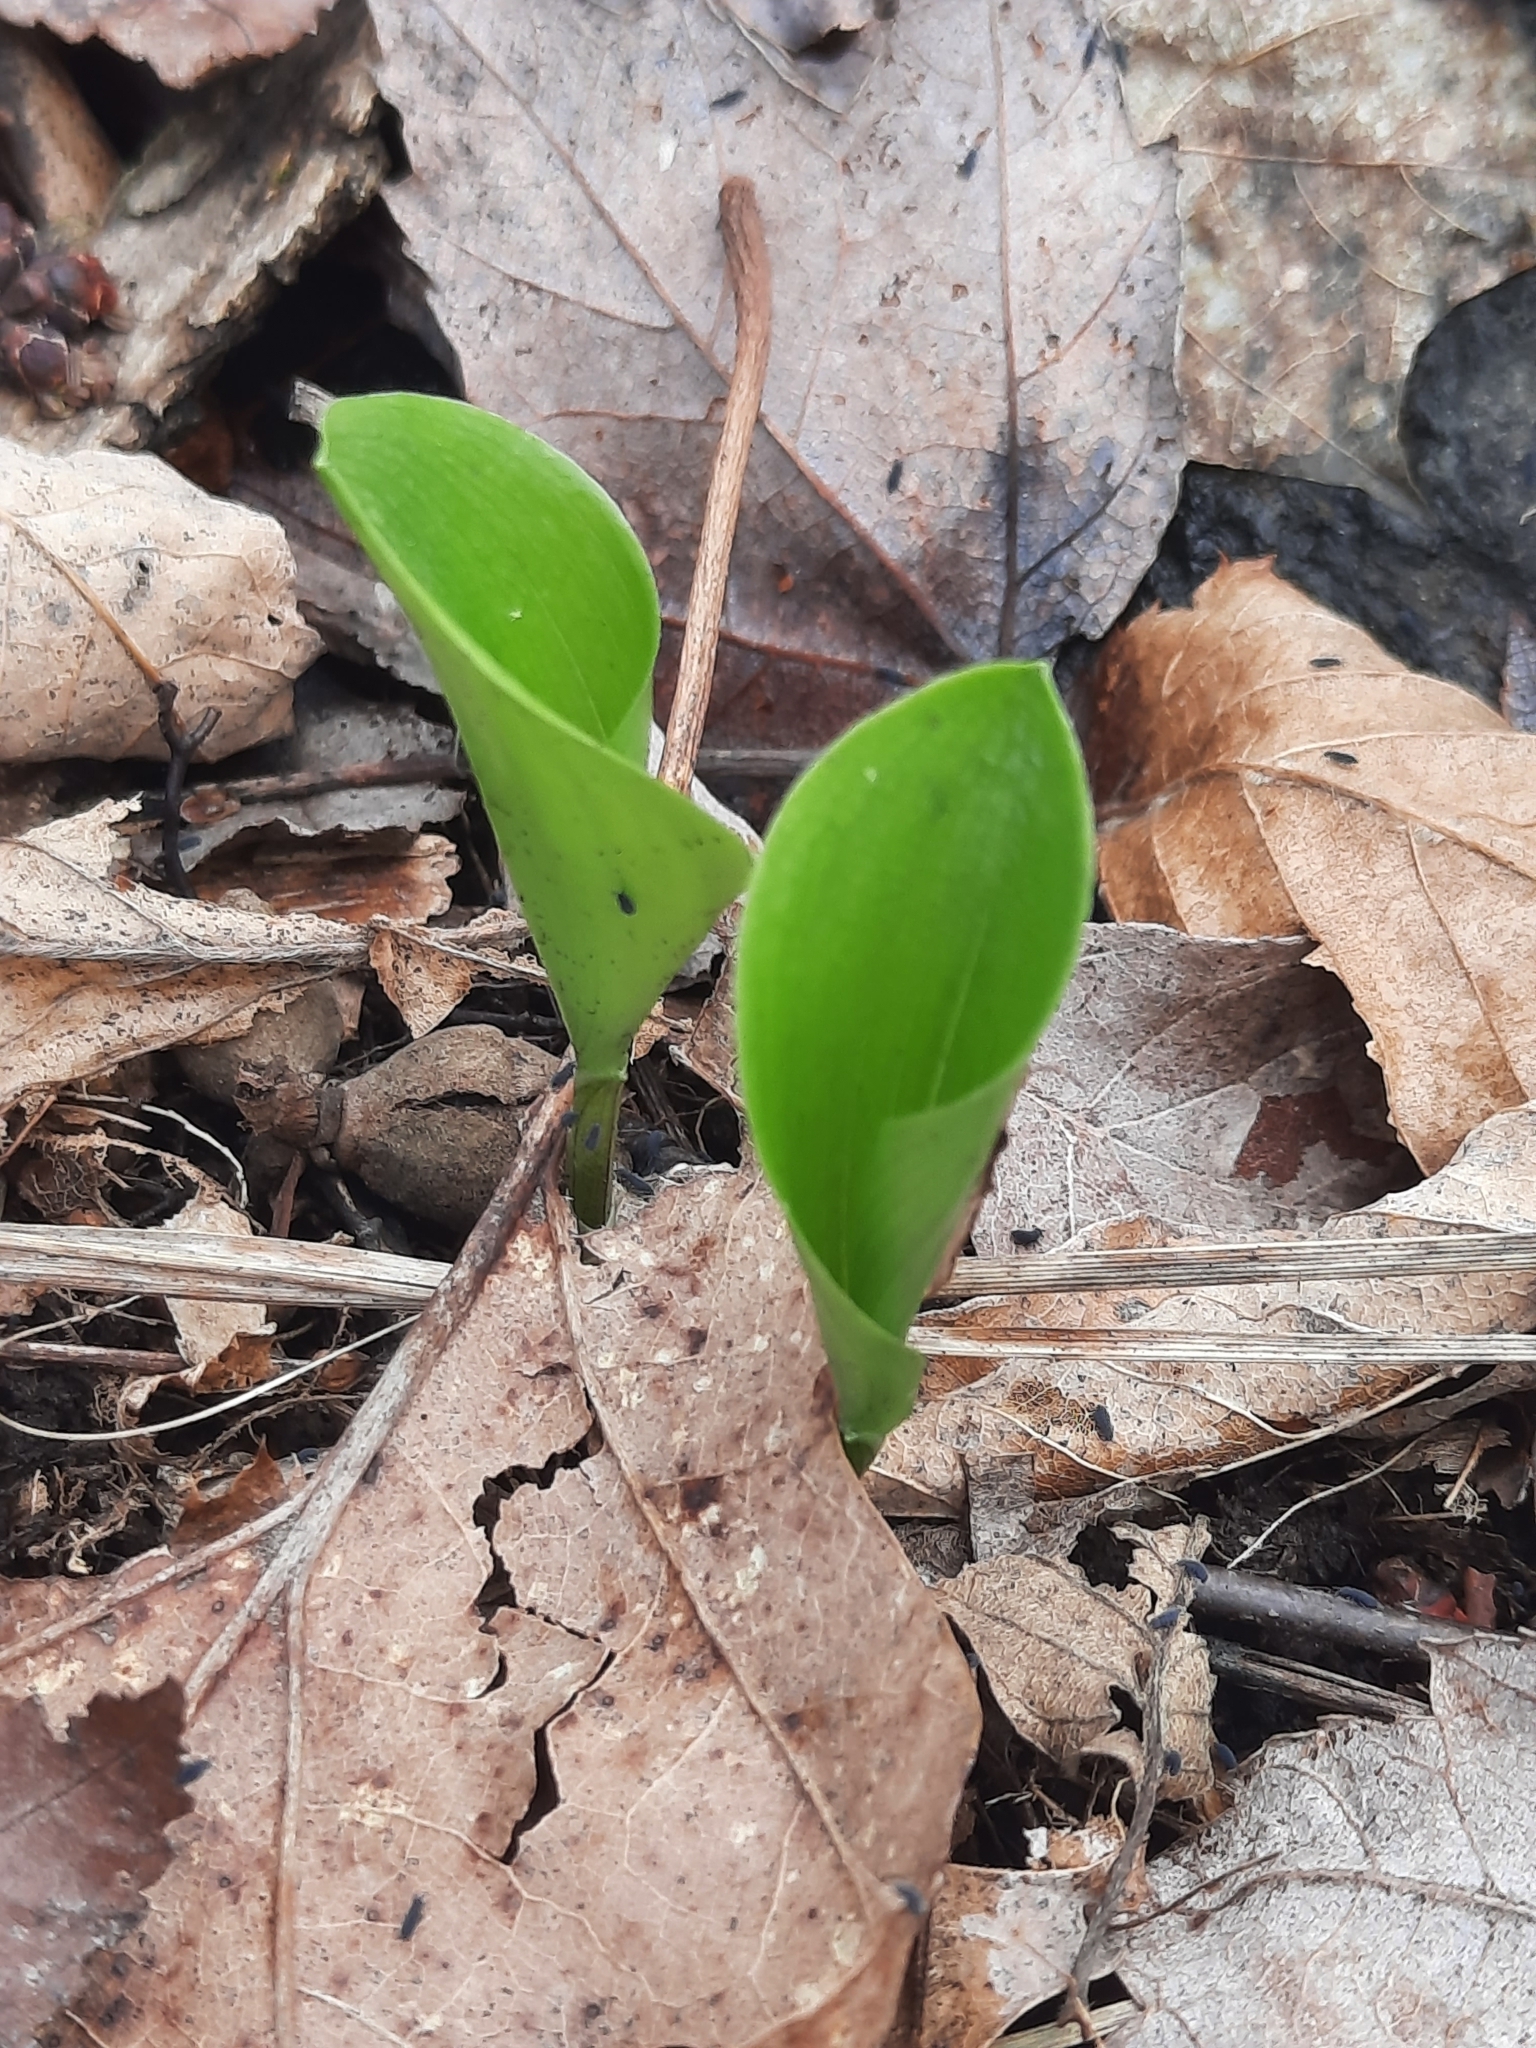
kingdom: Plantae
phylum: Tracheophyta
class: Liliopsida
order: Asparagales
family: Asparagaceae
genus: Maianthemum
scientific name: Maianthemum canadense
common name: False lily-of-the-valley
